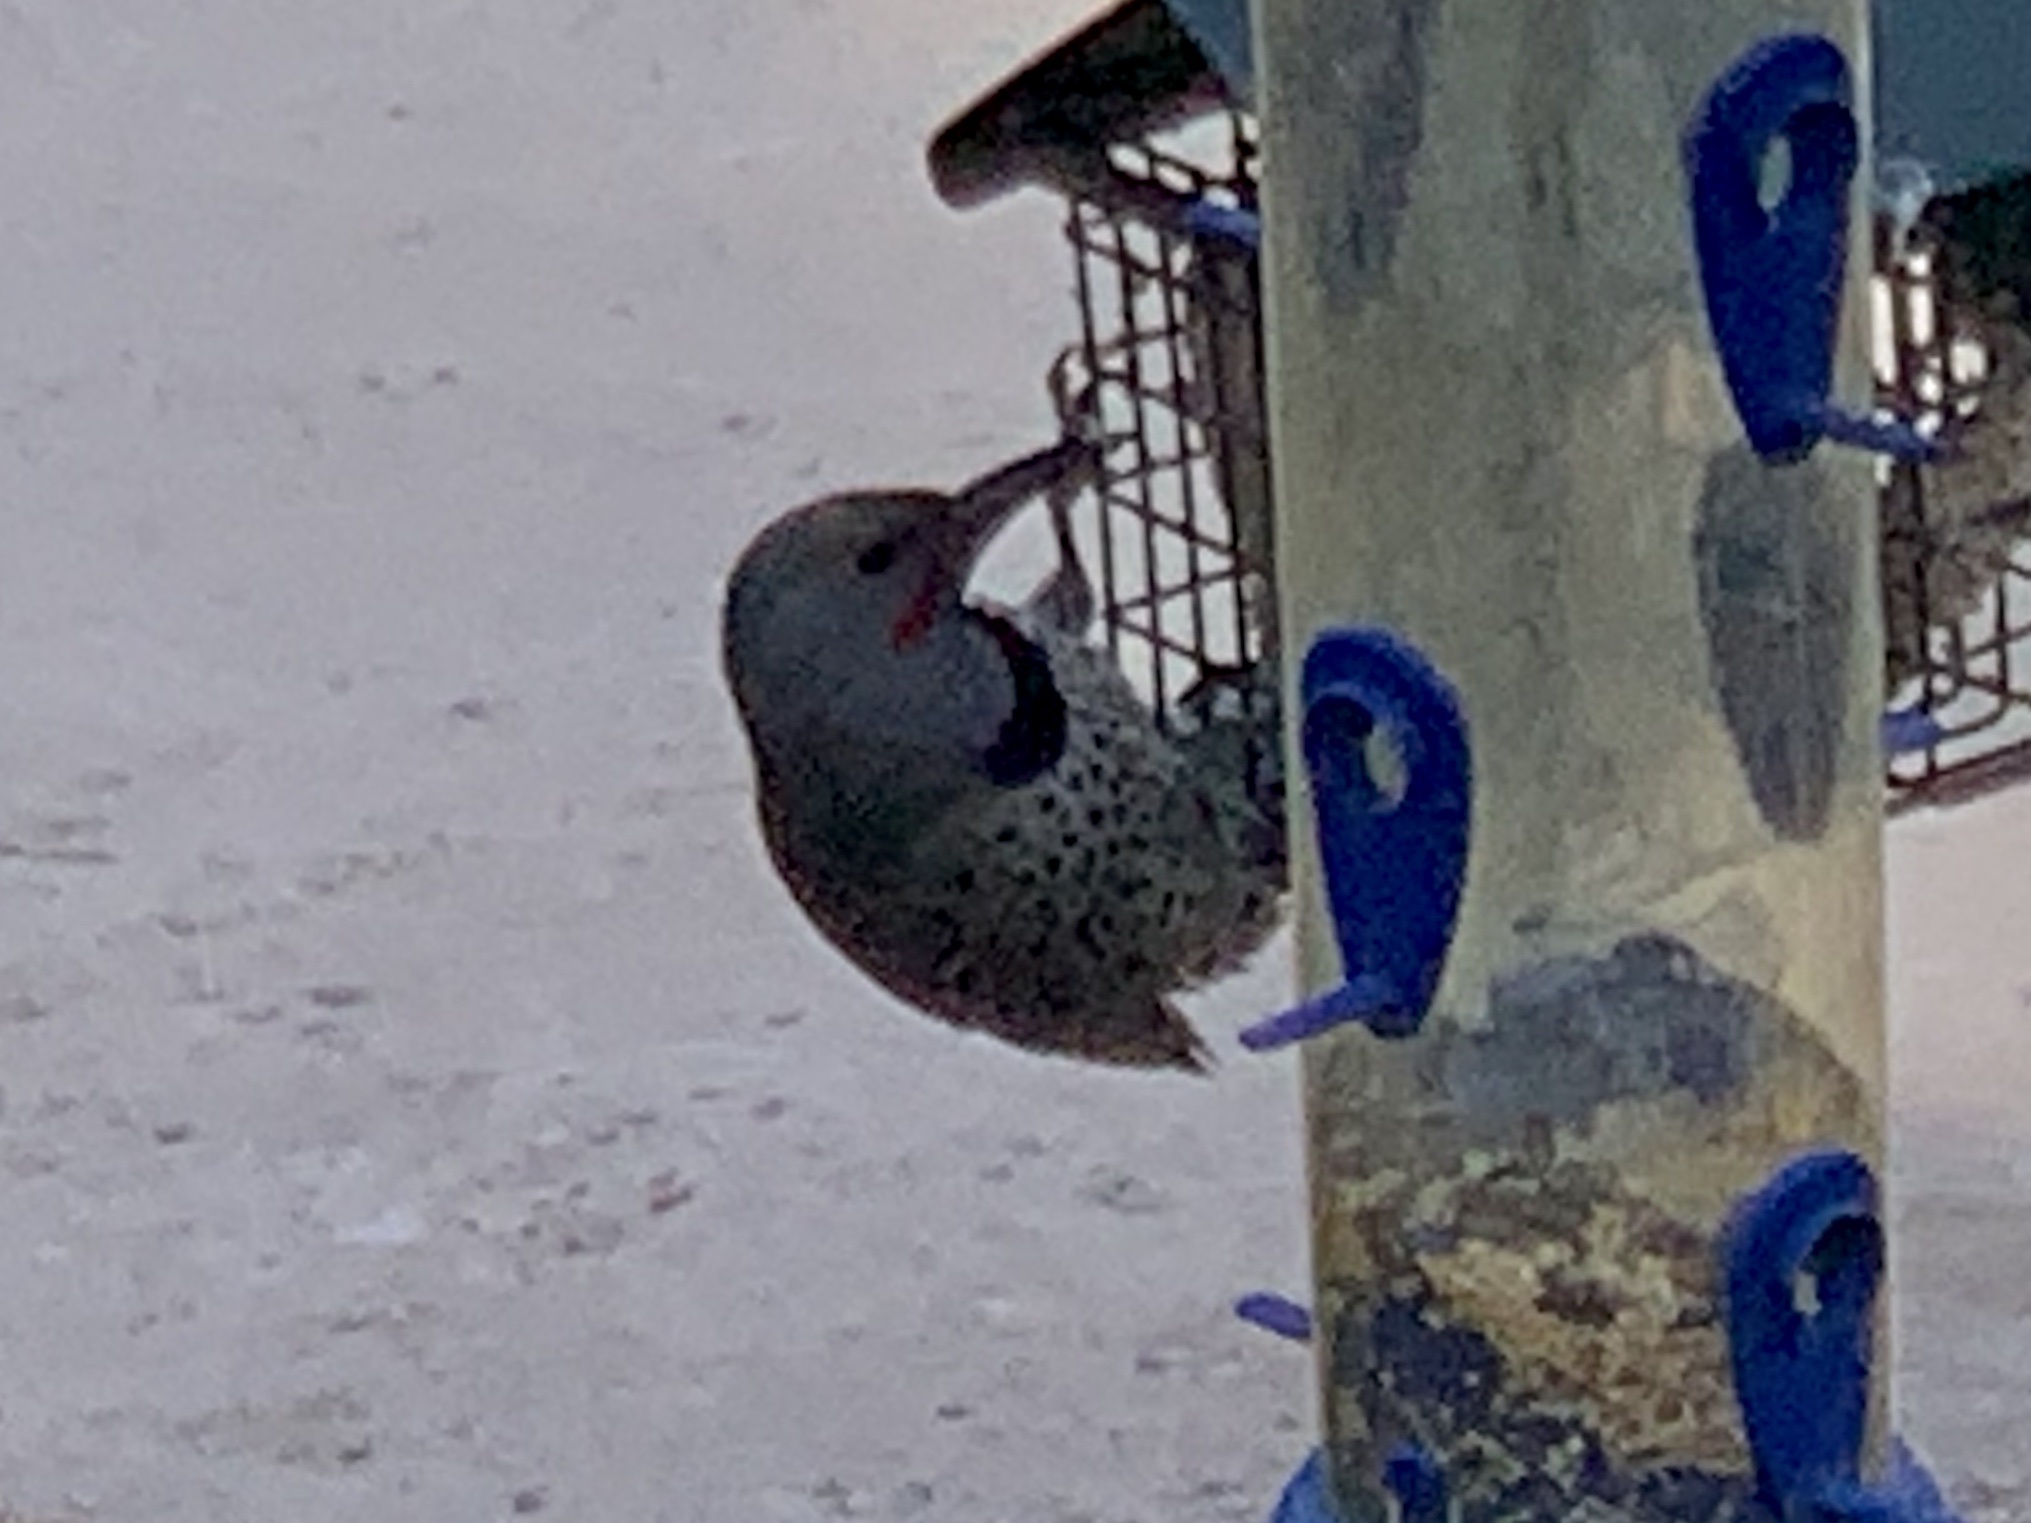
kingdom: Animalia
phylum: Chordata
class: Aves
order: Piciformes
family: Picidae
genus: Colaptes
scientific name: Colaptes auratus
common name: Northern flicker
